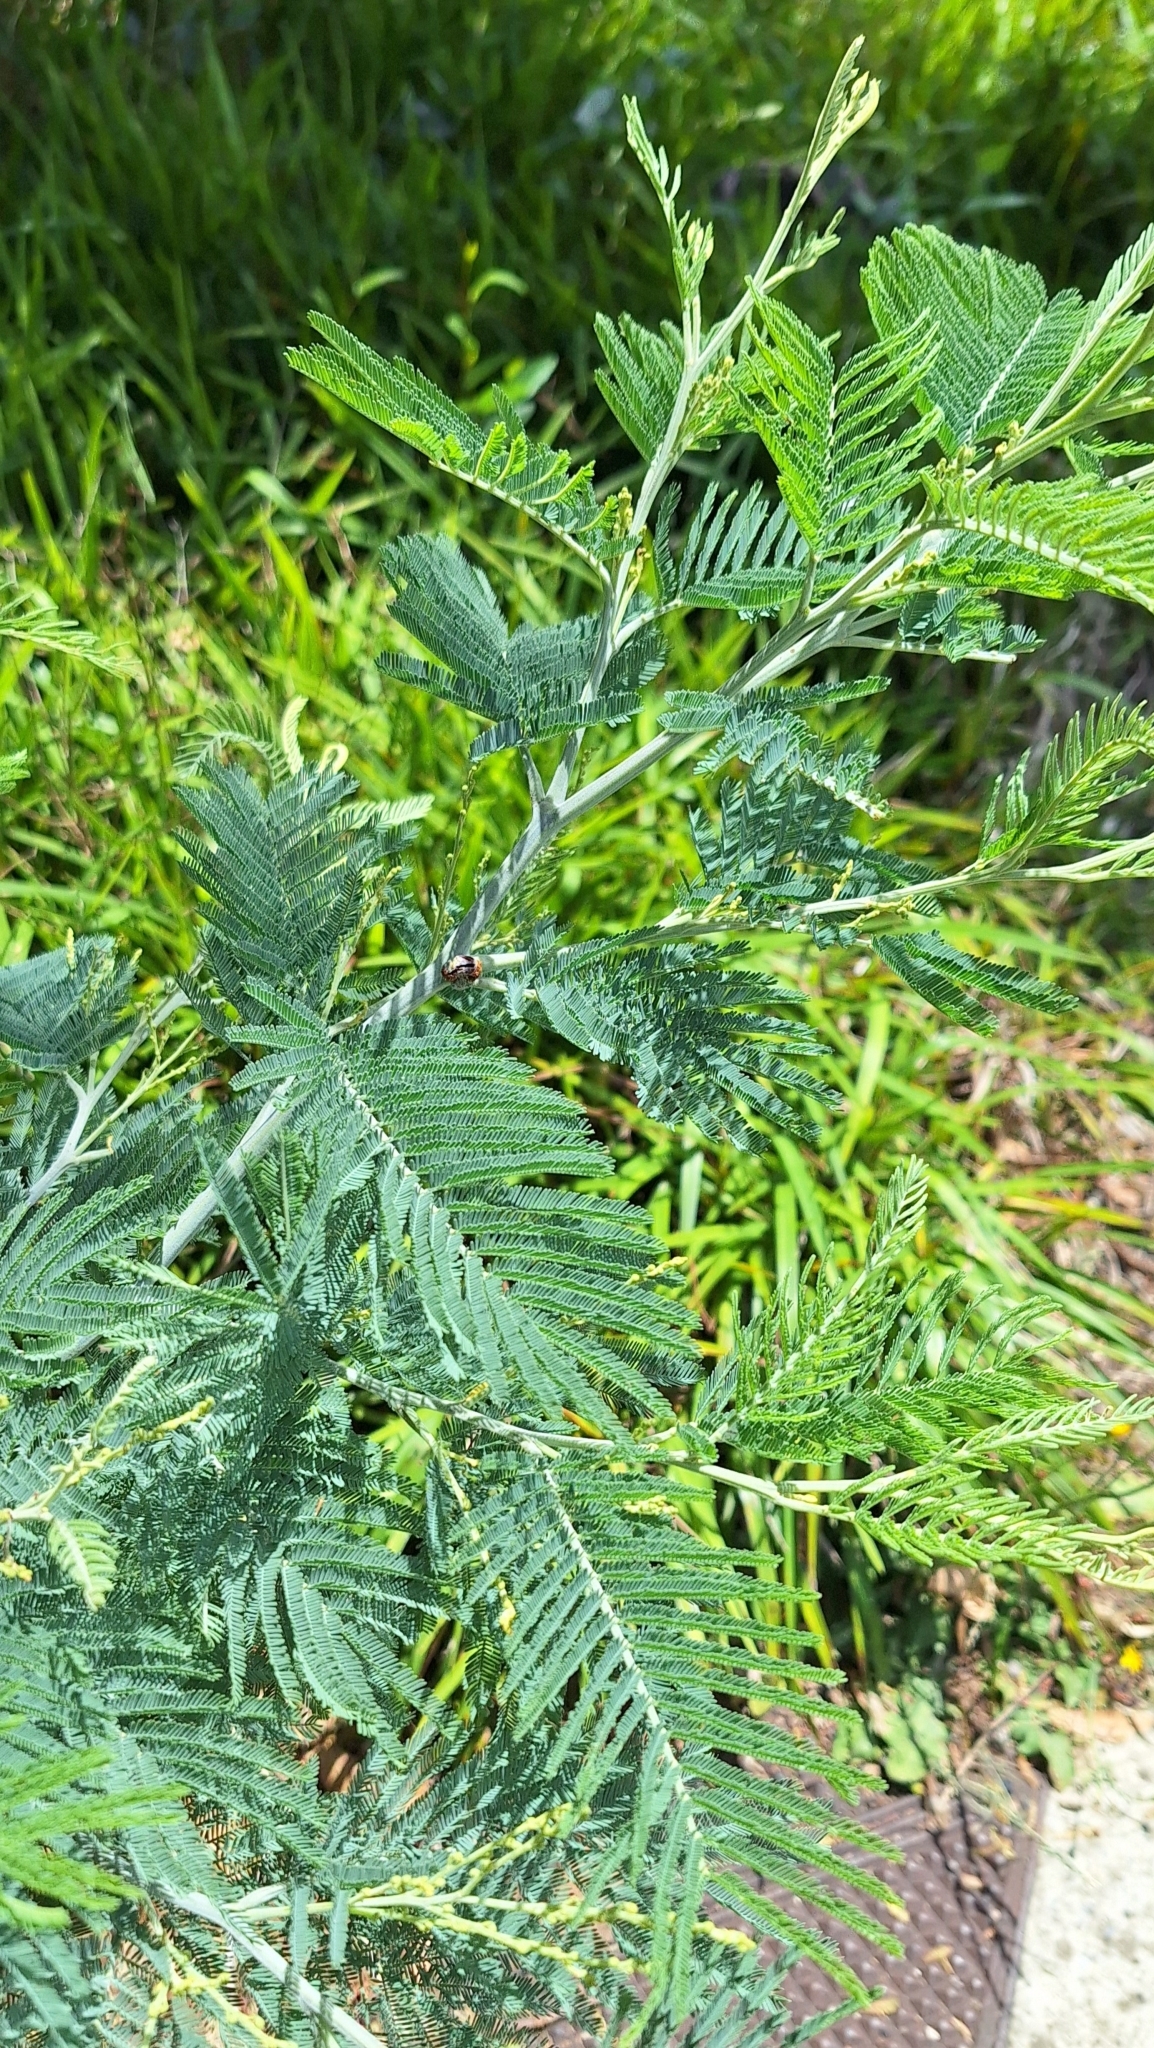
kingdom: Plantae
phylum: Tracheophyta
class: Magnoliopsida
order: Fabales
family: Fabaceae
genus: Acacia
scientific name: Acacia dealbata
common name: Silver wattle
